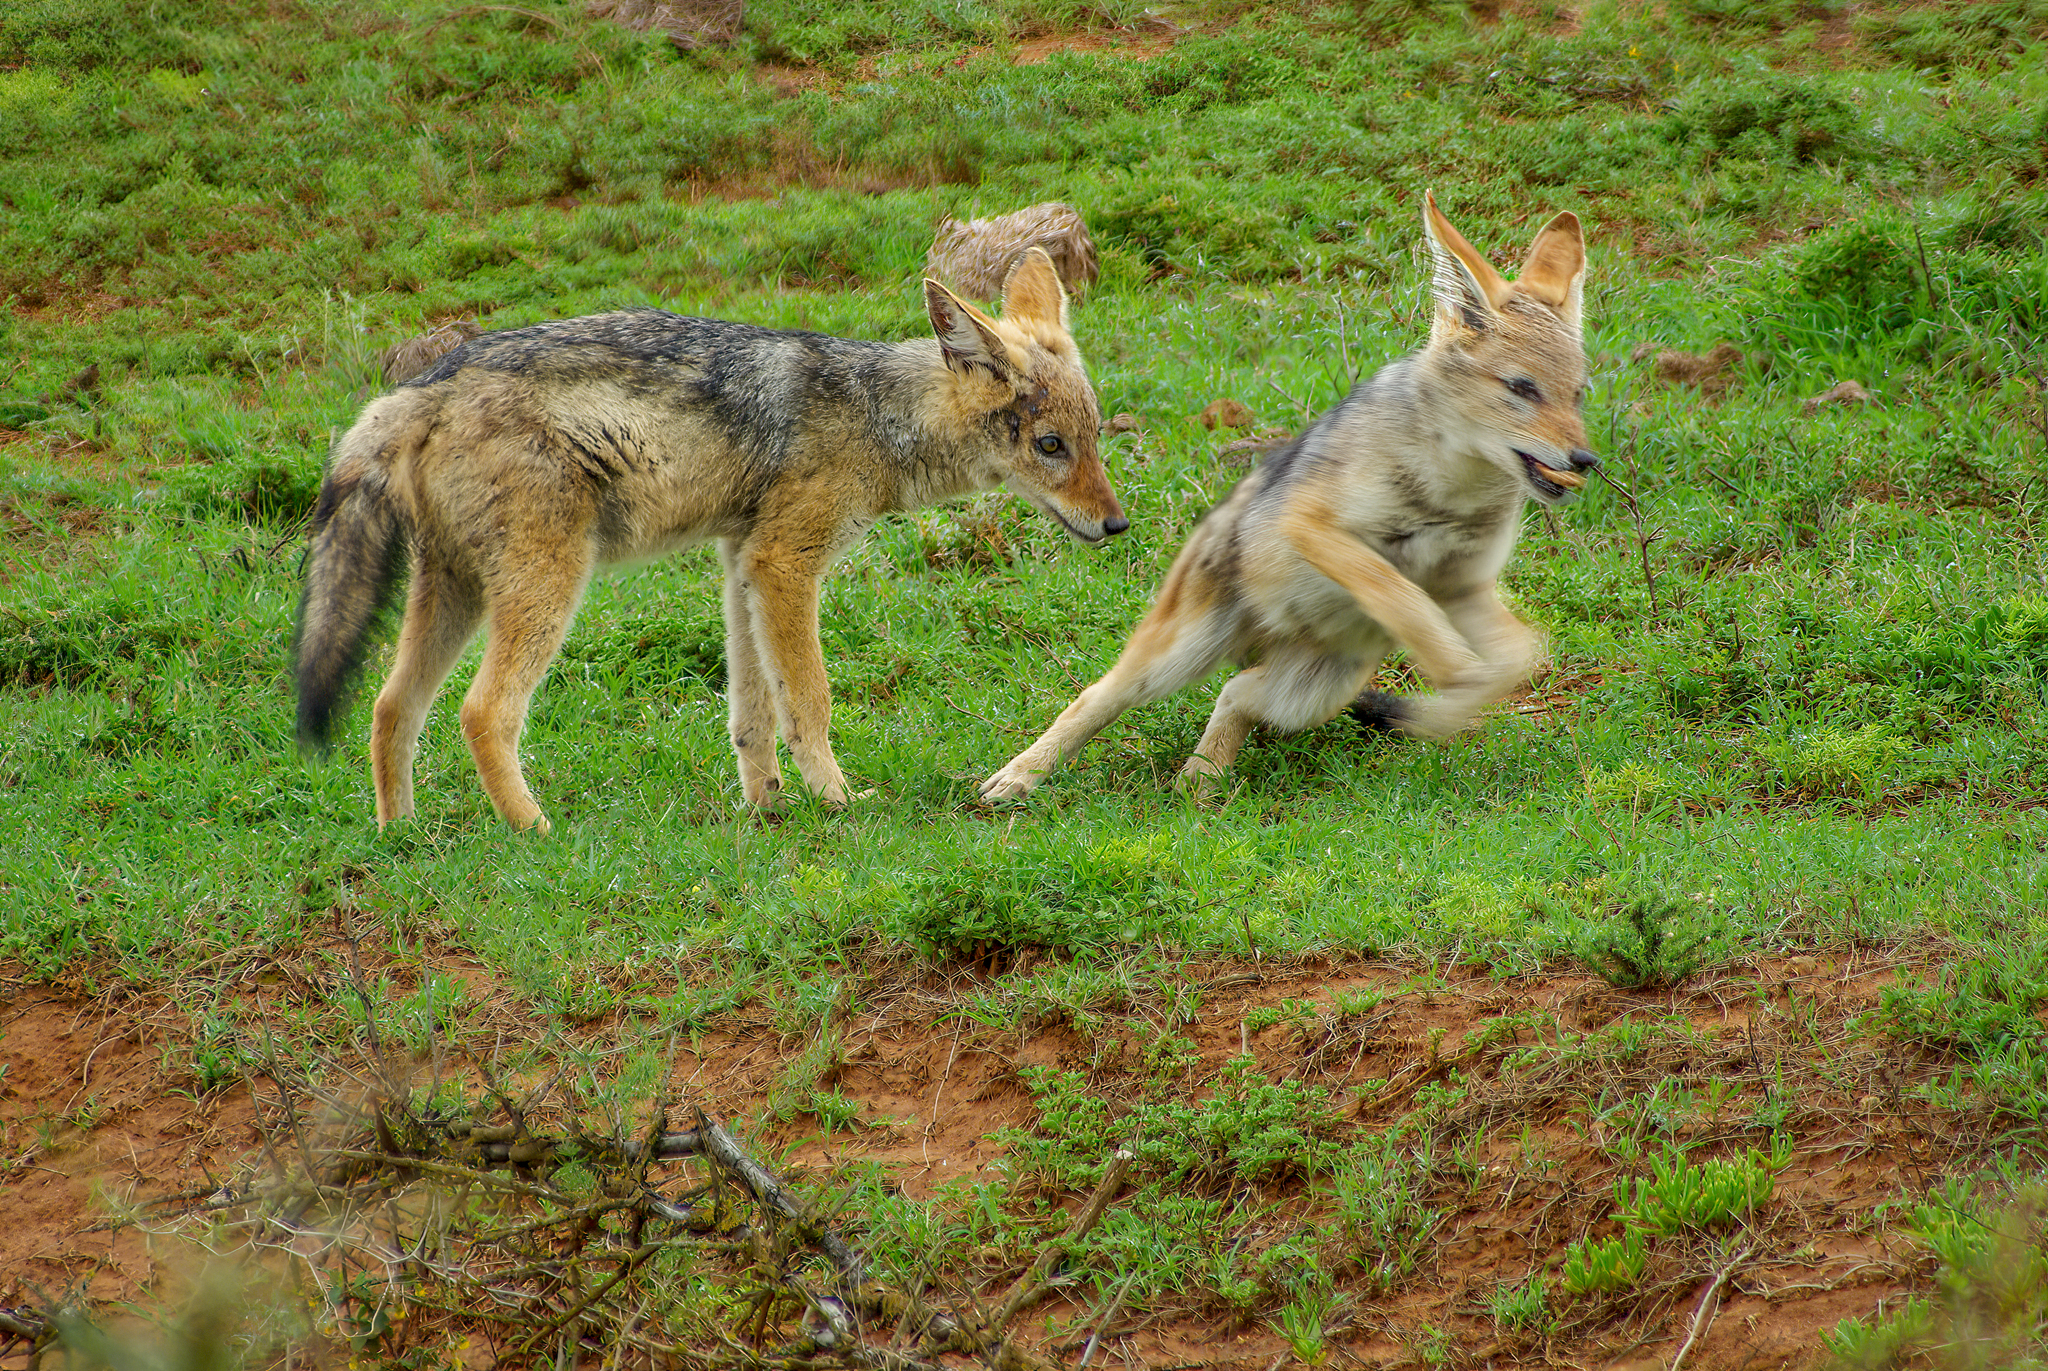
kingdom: Animalia
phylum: Chordata
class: Mammalia
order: Carnivora
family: Canidae
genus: Lupulella
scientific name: Lupulella
